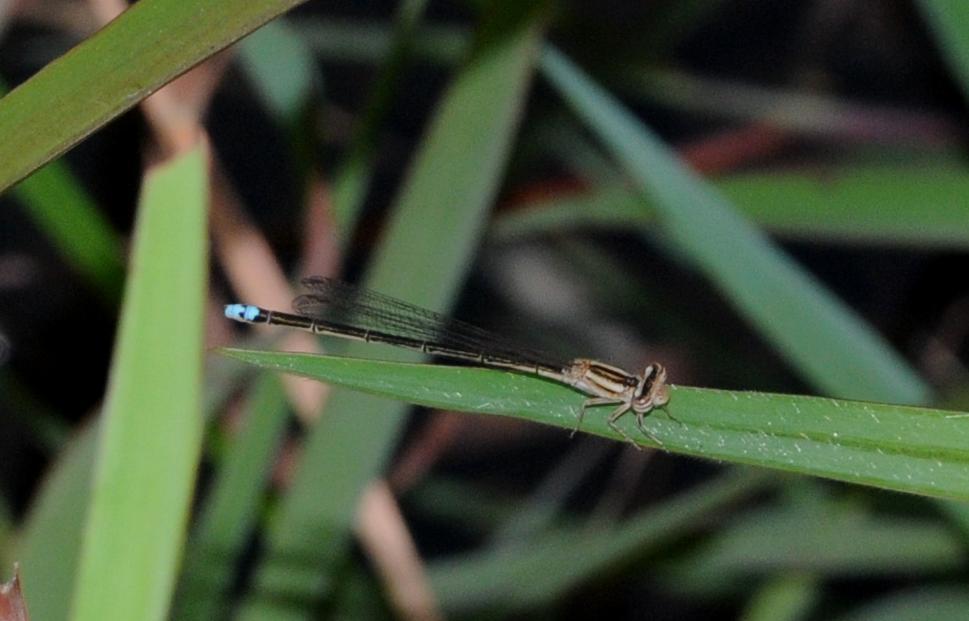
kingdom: Animalia
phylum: Arthropoda
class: Insecta
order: Odonata
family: Coenagrionidae
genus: Pseudagrion
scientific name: Pseudagrion kersteni
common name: Powder-faced sprite
